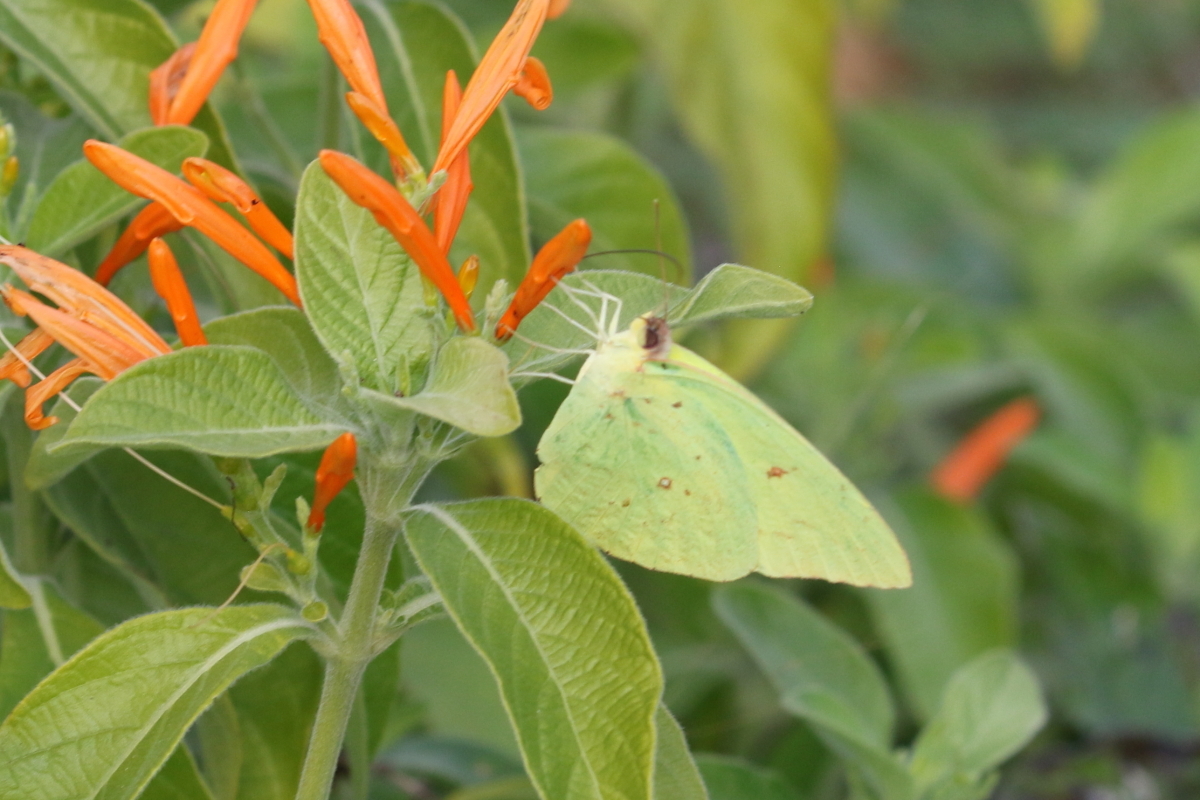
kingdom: Animalia
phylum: Arthropoda
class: Insecta
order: Lepidoptera
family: Pieridae
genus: Phoebis
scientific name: Phoebis sennae
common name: Cloudless sulphur
